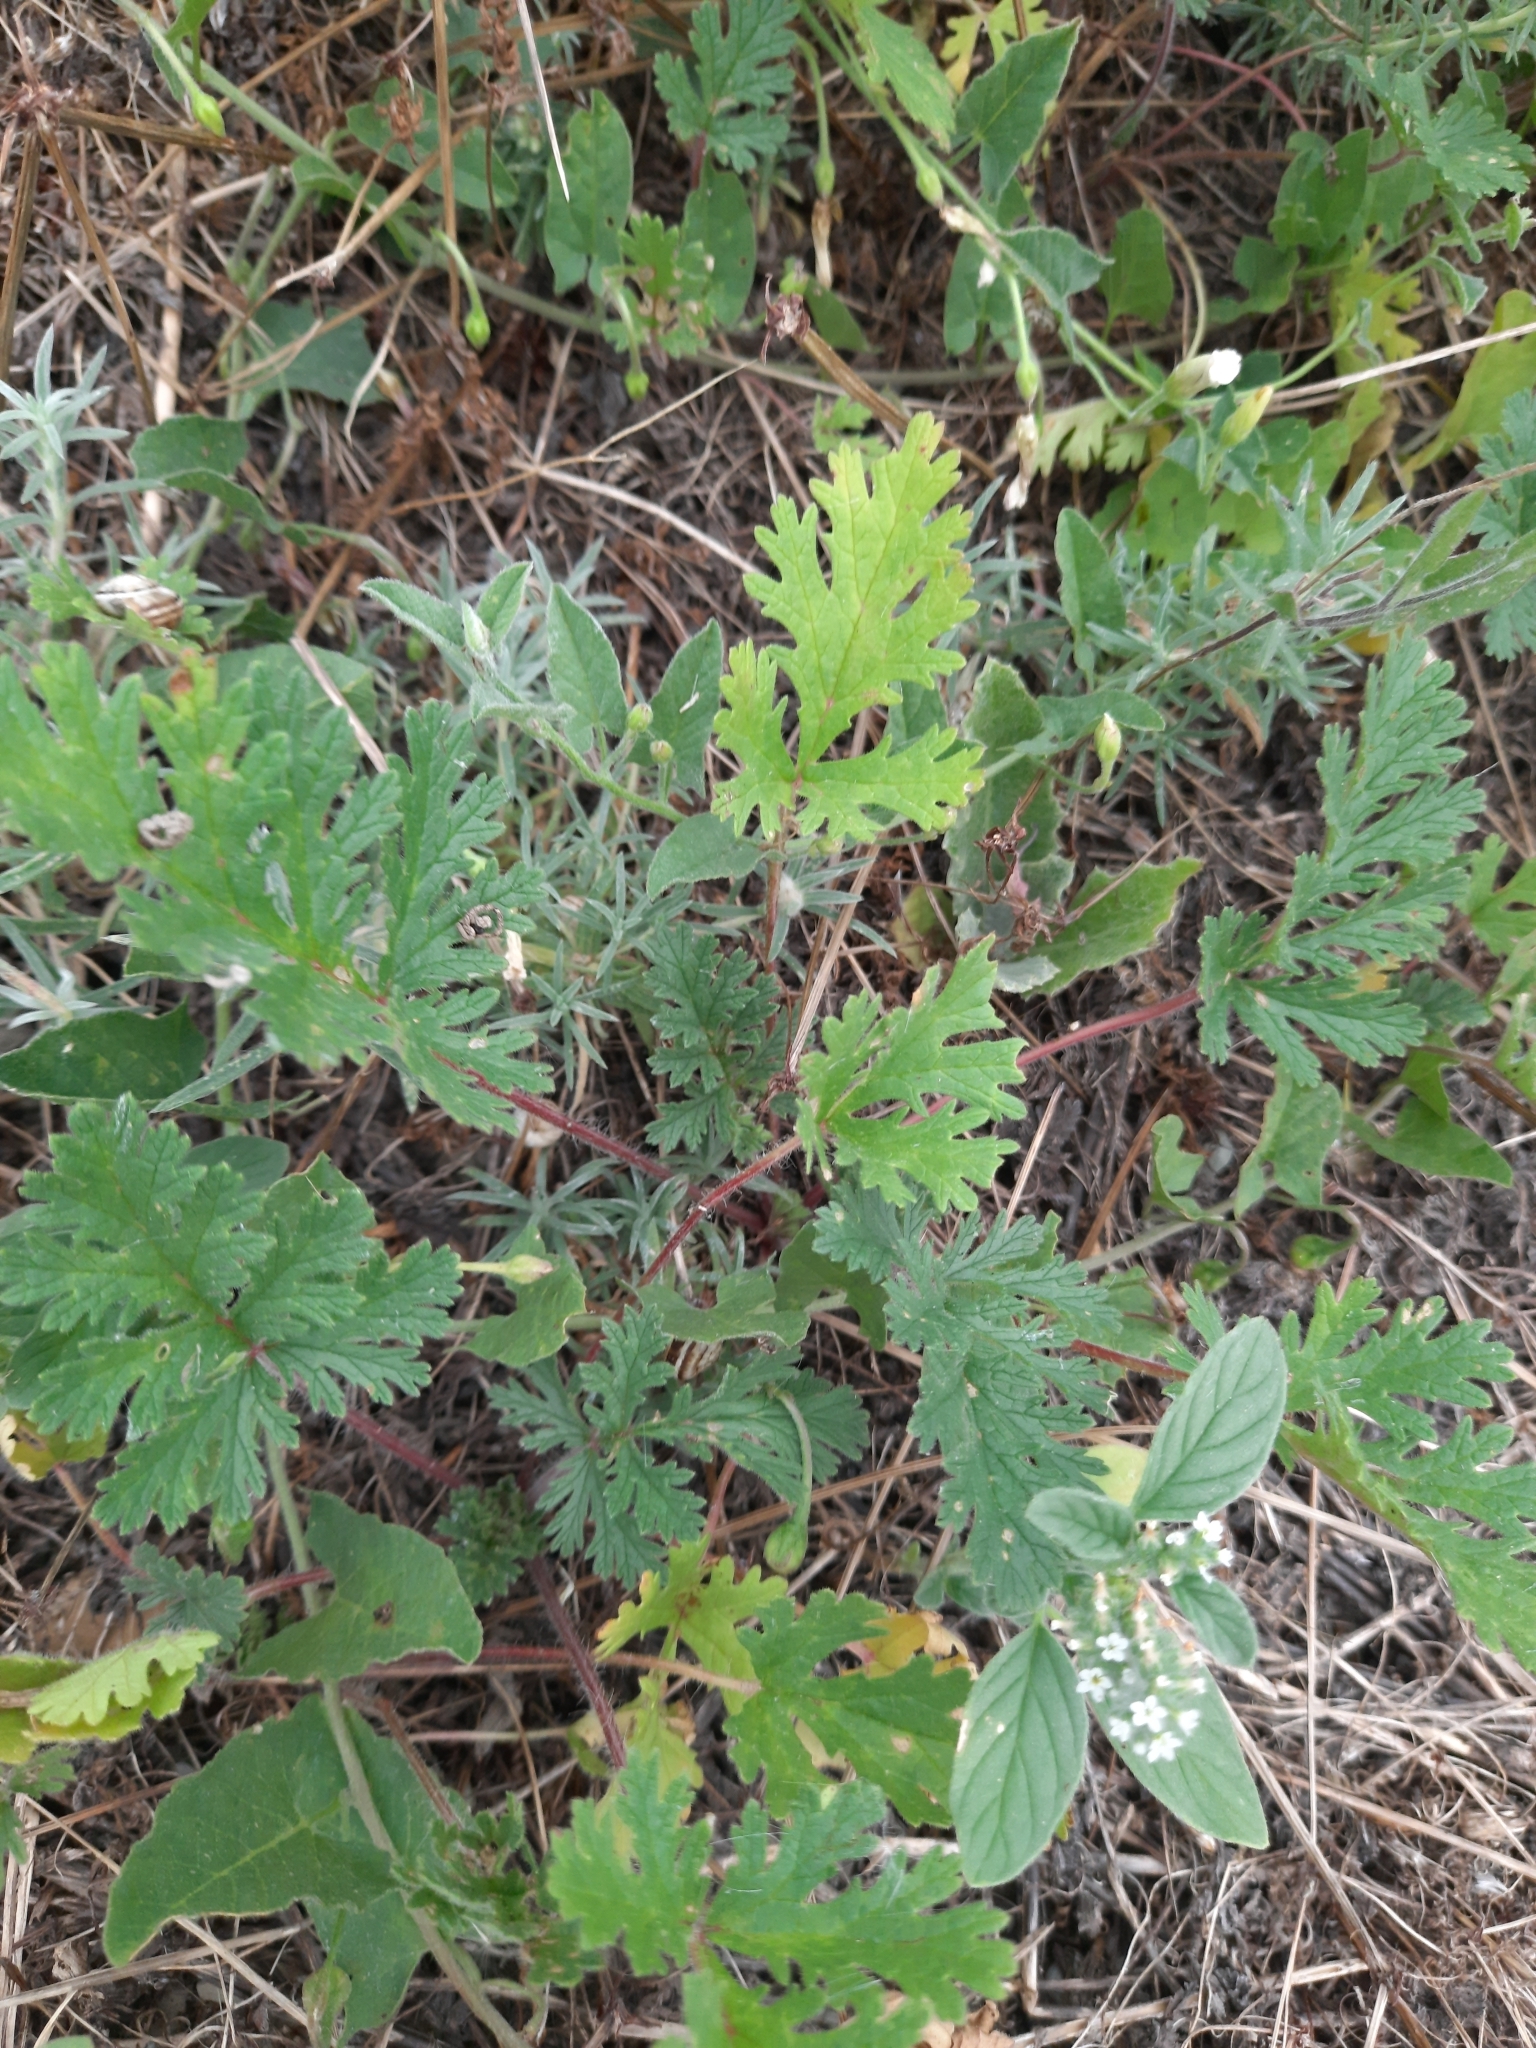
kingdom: Plantae
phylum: Tracheophyta
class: Magnoliopsida
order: Geraniales
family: Geraniaceae
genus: Erodium
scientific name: Erodium ciconium
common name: Common stork's bill
